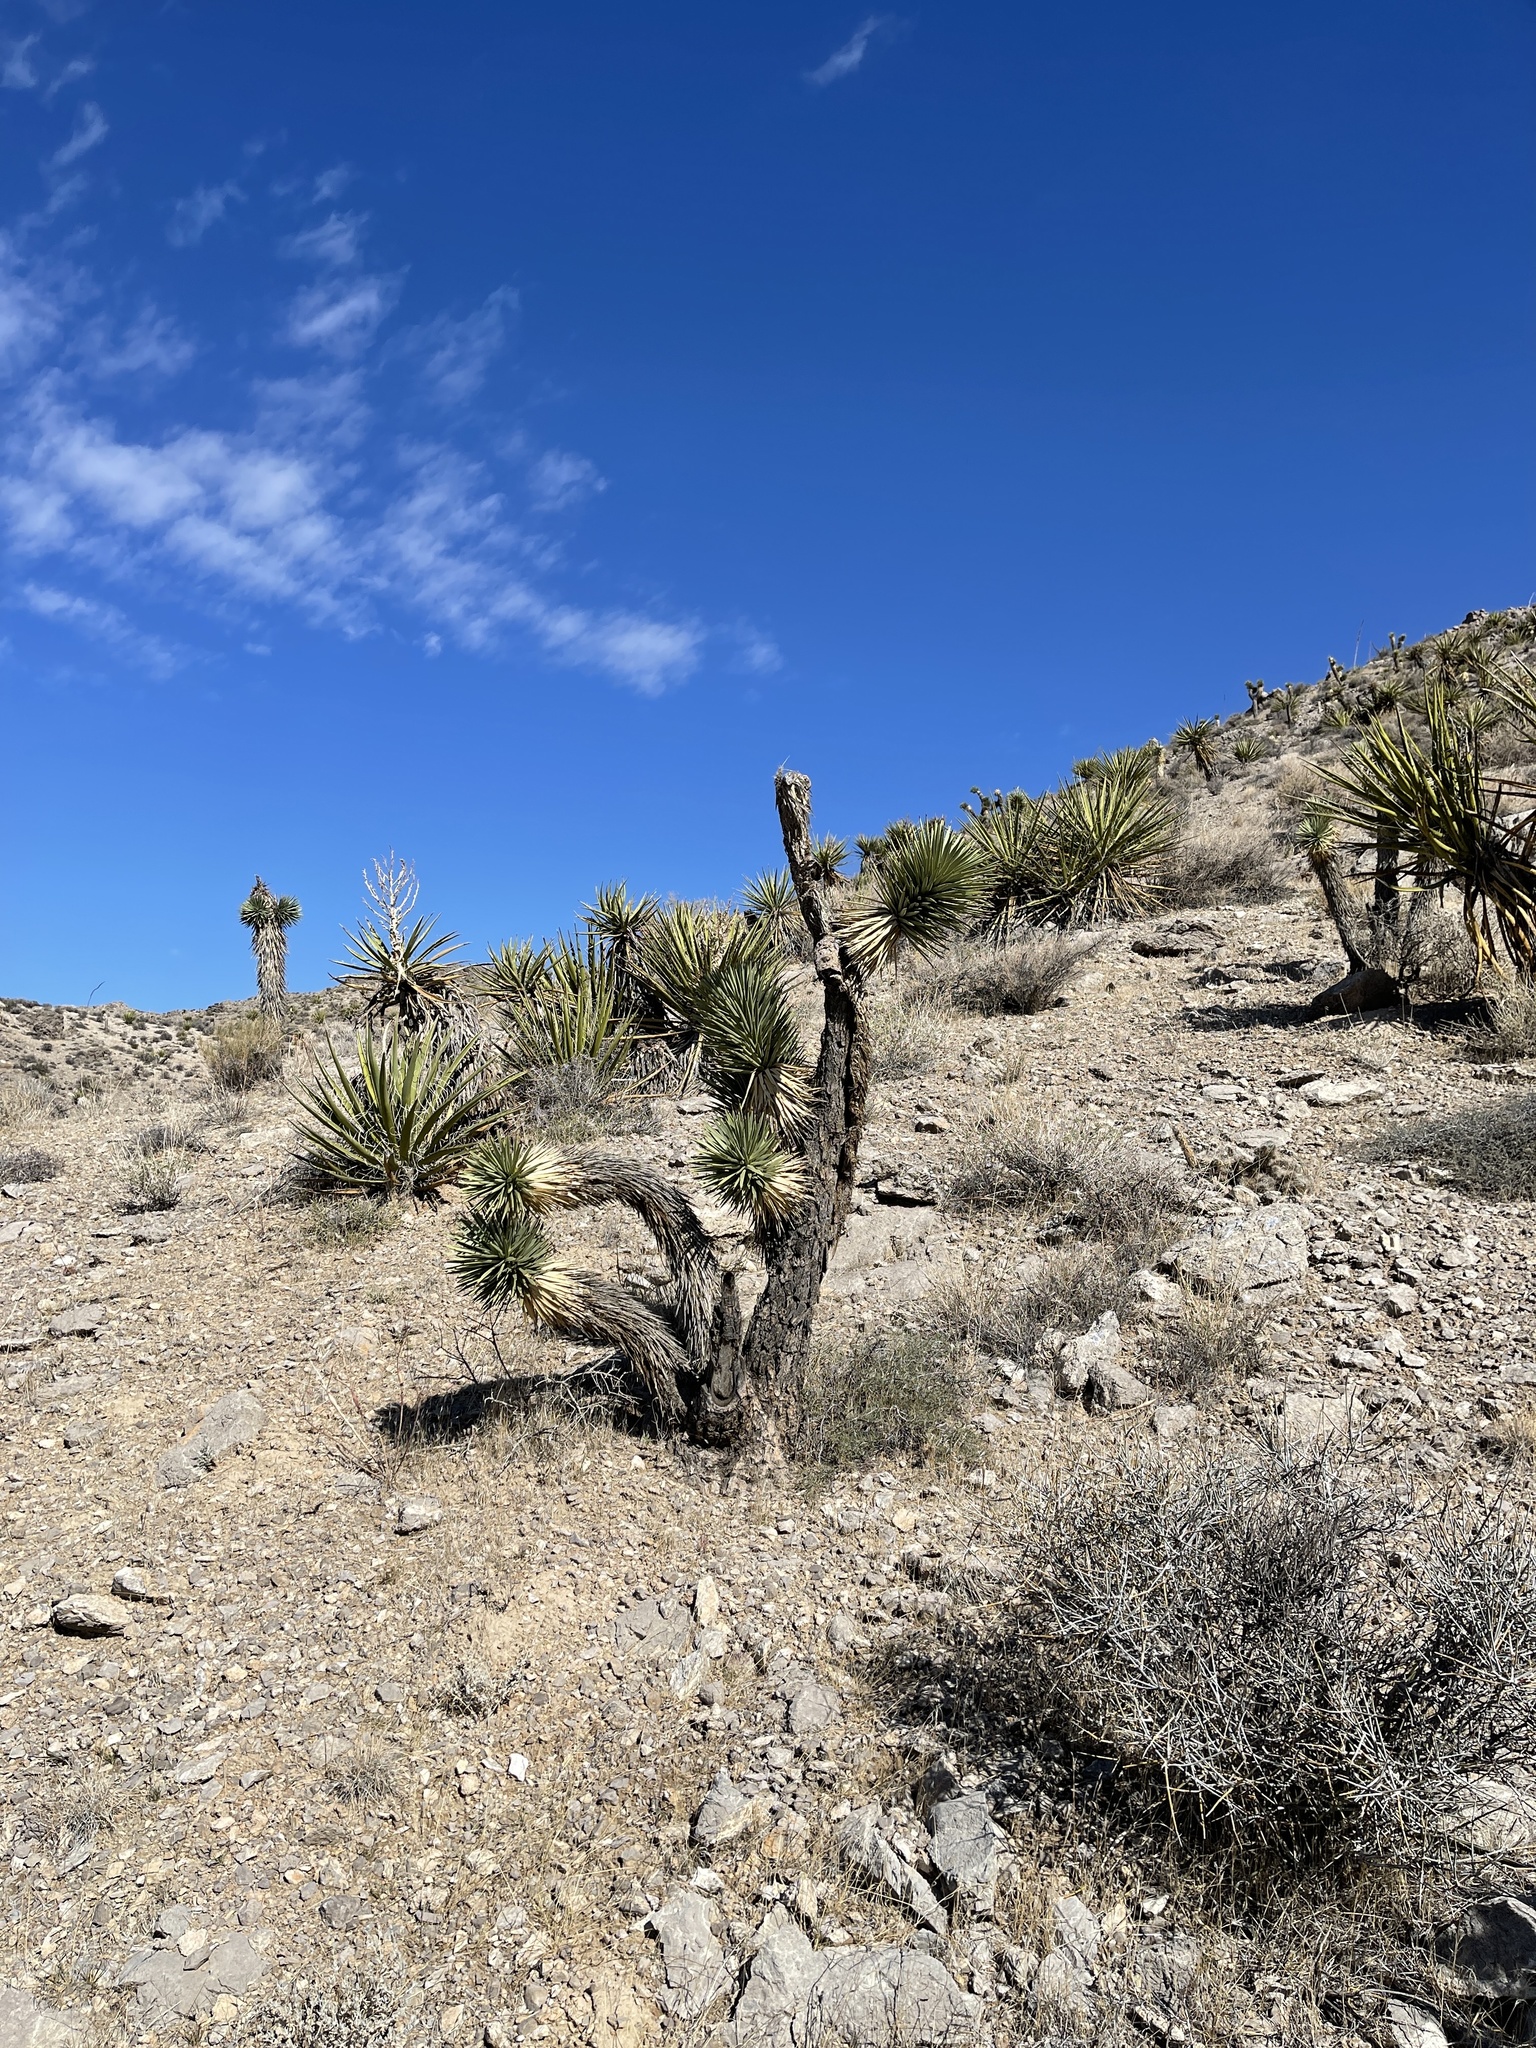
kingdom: Plantae
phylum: Tracheophyta
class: Liliopsida
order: Asparagales
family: Asparagaceae
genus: Yucca
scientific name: Yucca brevifolia
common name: Joshua tree
